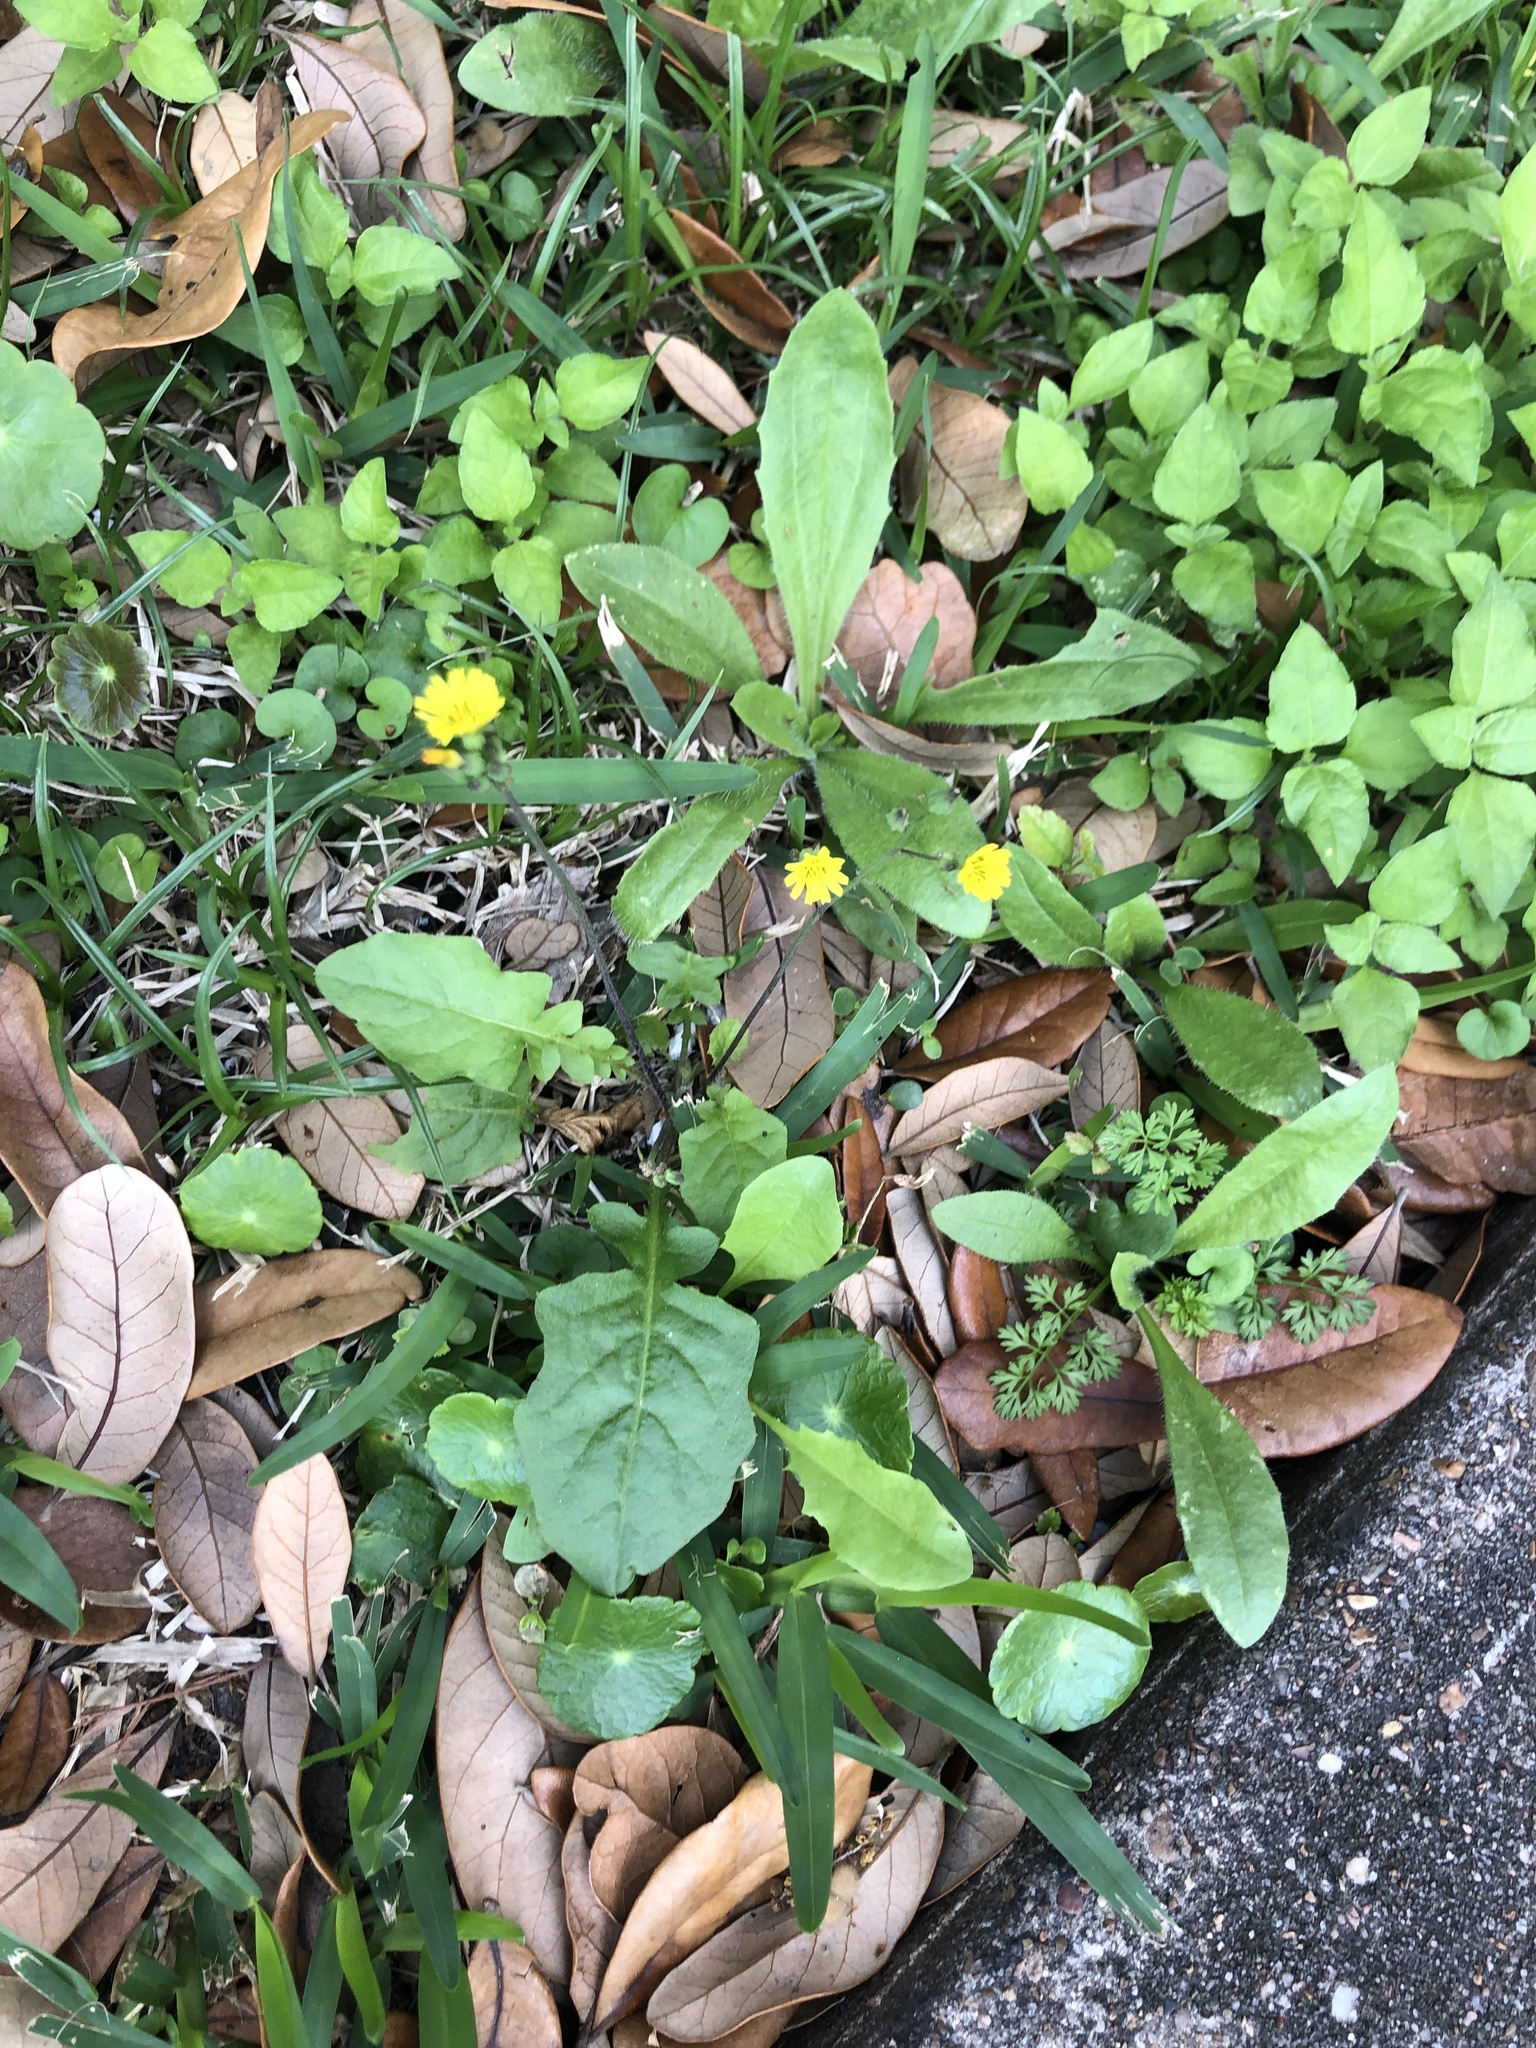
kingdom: Plantae
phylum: Tracheophyta
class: Magnoliopsida
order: Asterales
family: Asteraceae
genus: Youngia
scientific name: Youngia japonica
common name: Oriental false hawksbeard
